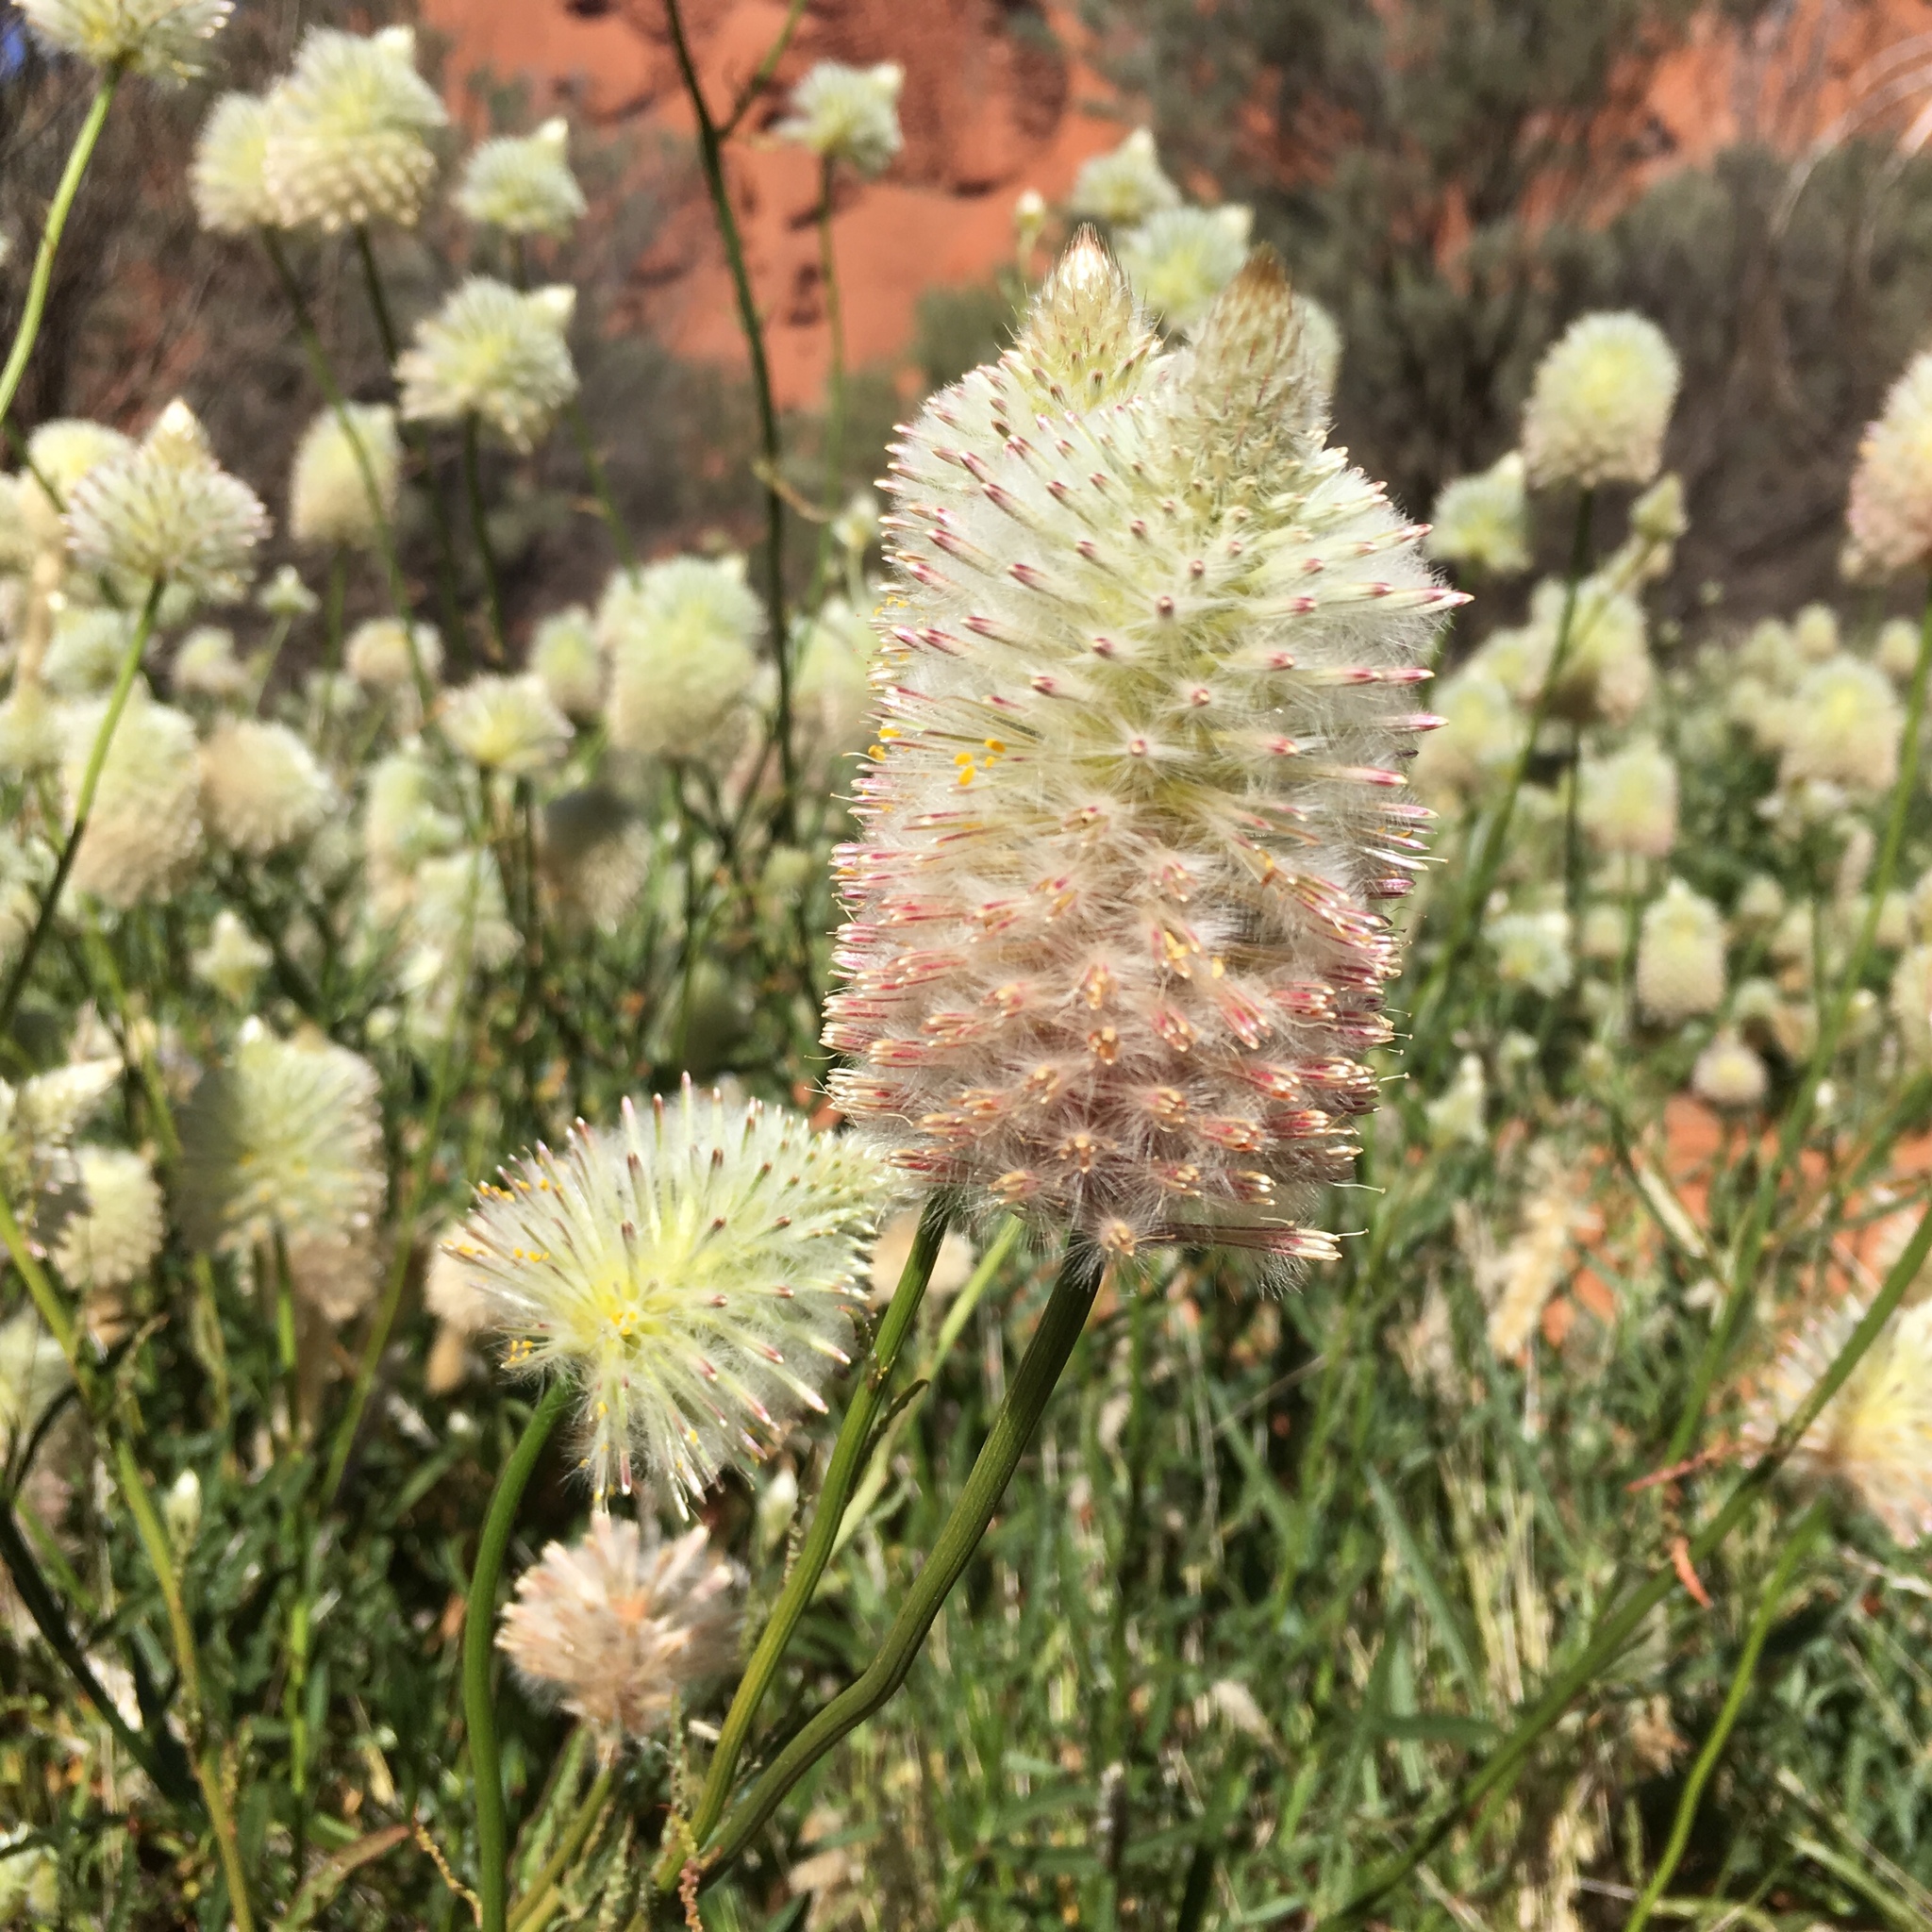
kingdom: Plantae
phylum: Tracheophyta
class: Magnoliopsida
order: Caryophyllales
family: Amaranthaceae
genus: Ptilotus
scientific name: Ptilotus xerophilus
